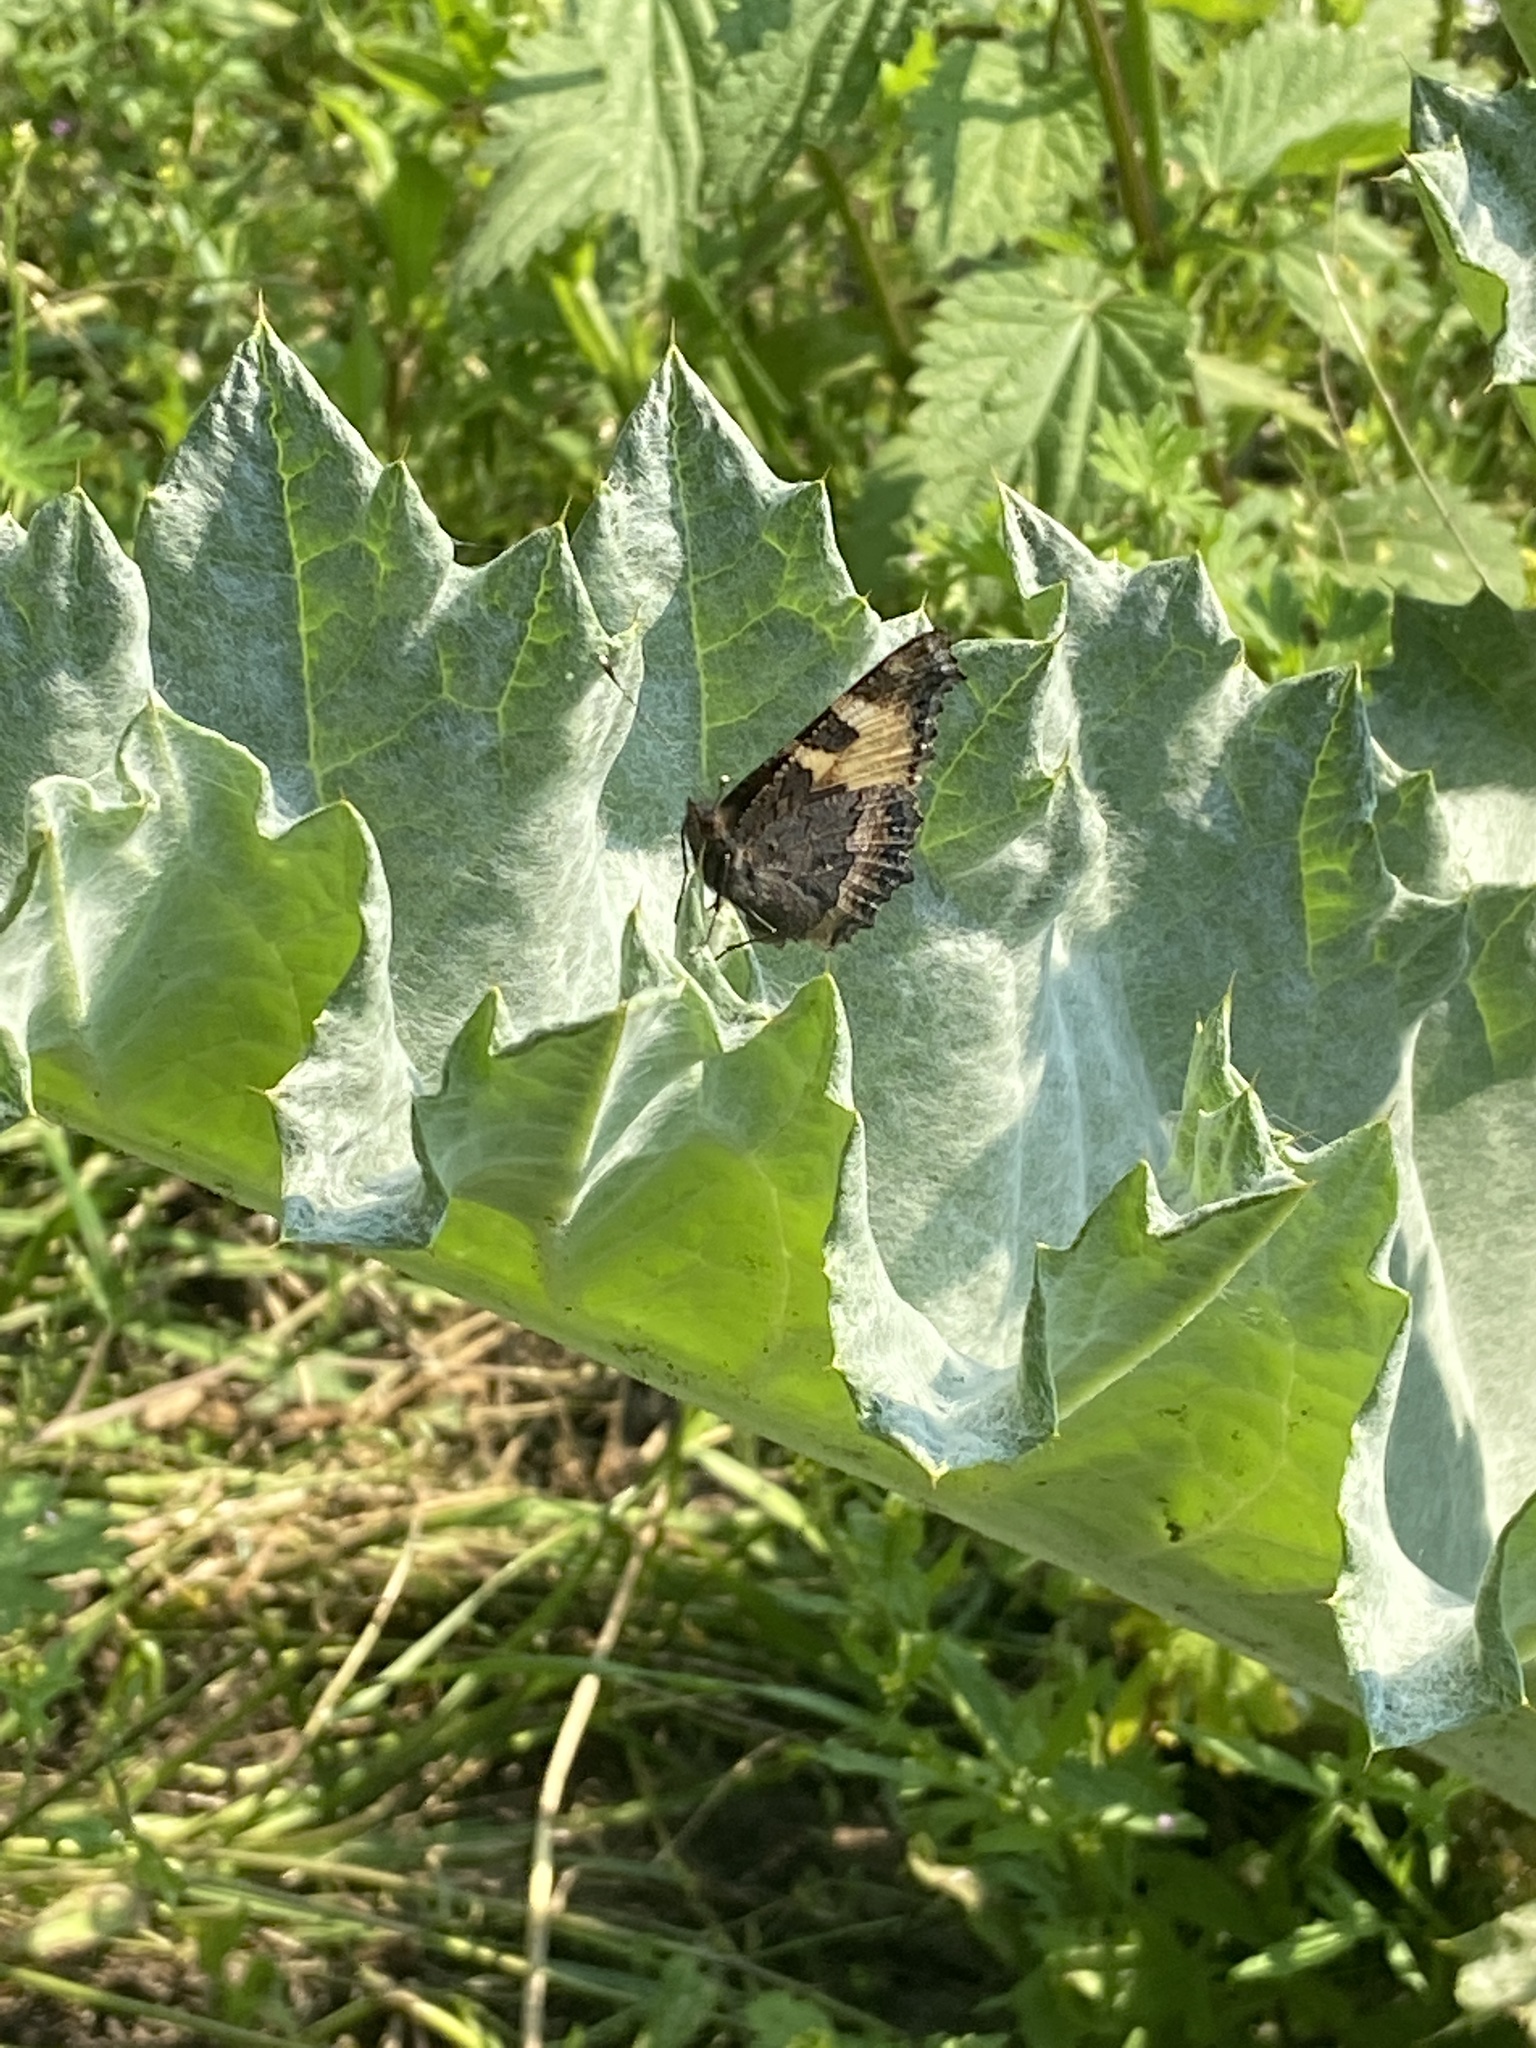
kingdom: Animalia
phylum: Arthropoda
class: Insecta
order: Lepidoptera
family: Nymphalidae
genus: Aglais
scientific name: Aglais urticae
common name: Small tortoiseshell
